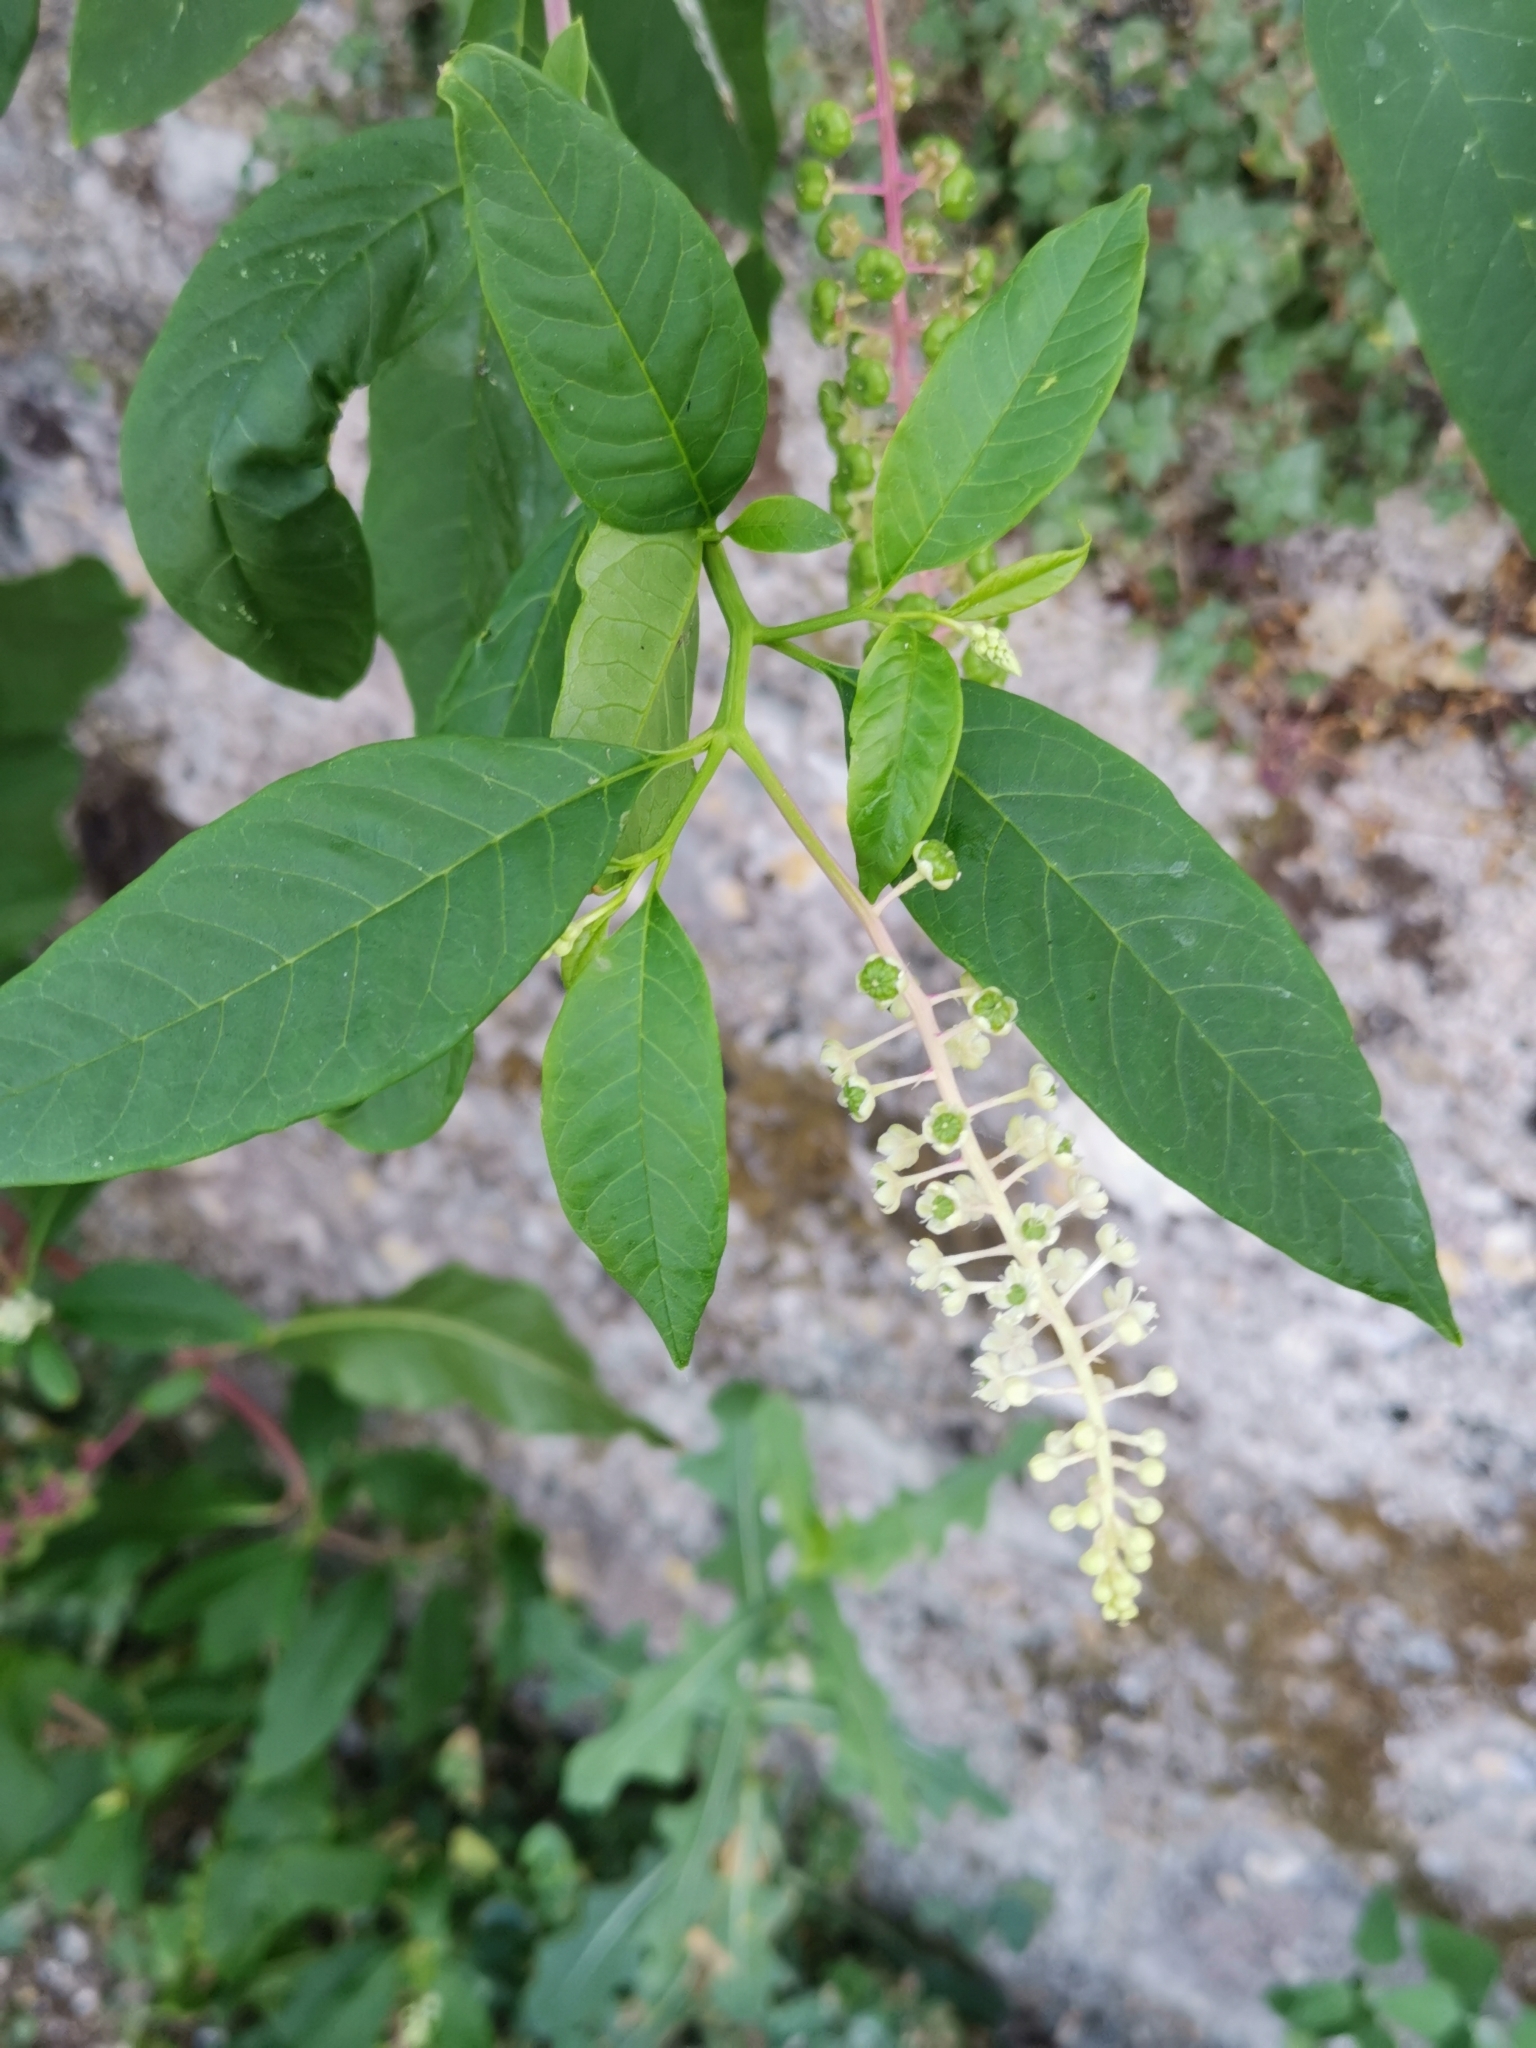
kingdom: Plantae
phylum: Tracheophyta
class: Magnoliopsida
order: Caryophyllales
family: Phytolaccaceae
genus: Phytolacca
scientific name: Phytolacca americana
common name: American pokeweed
